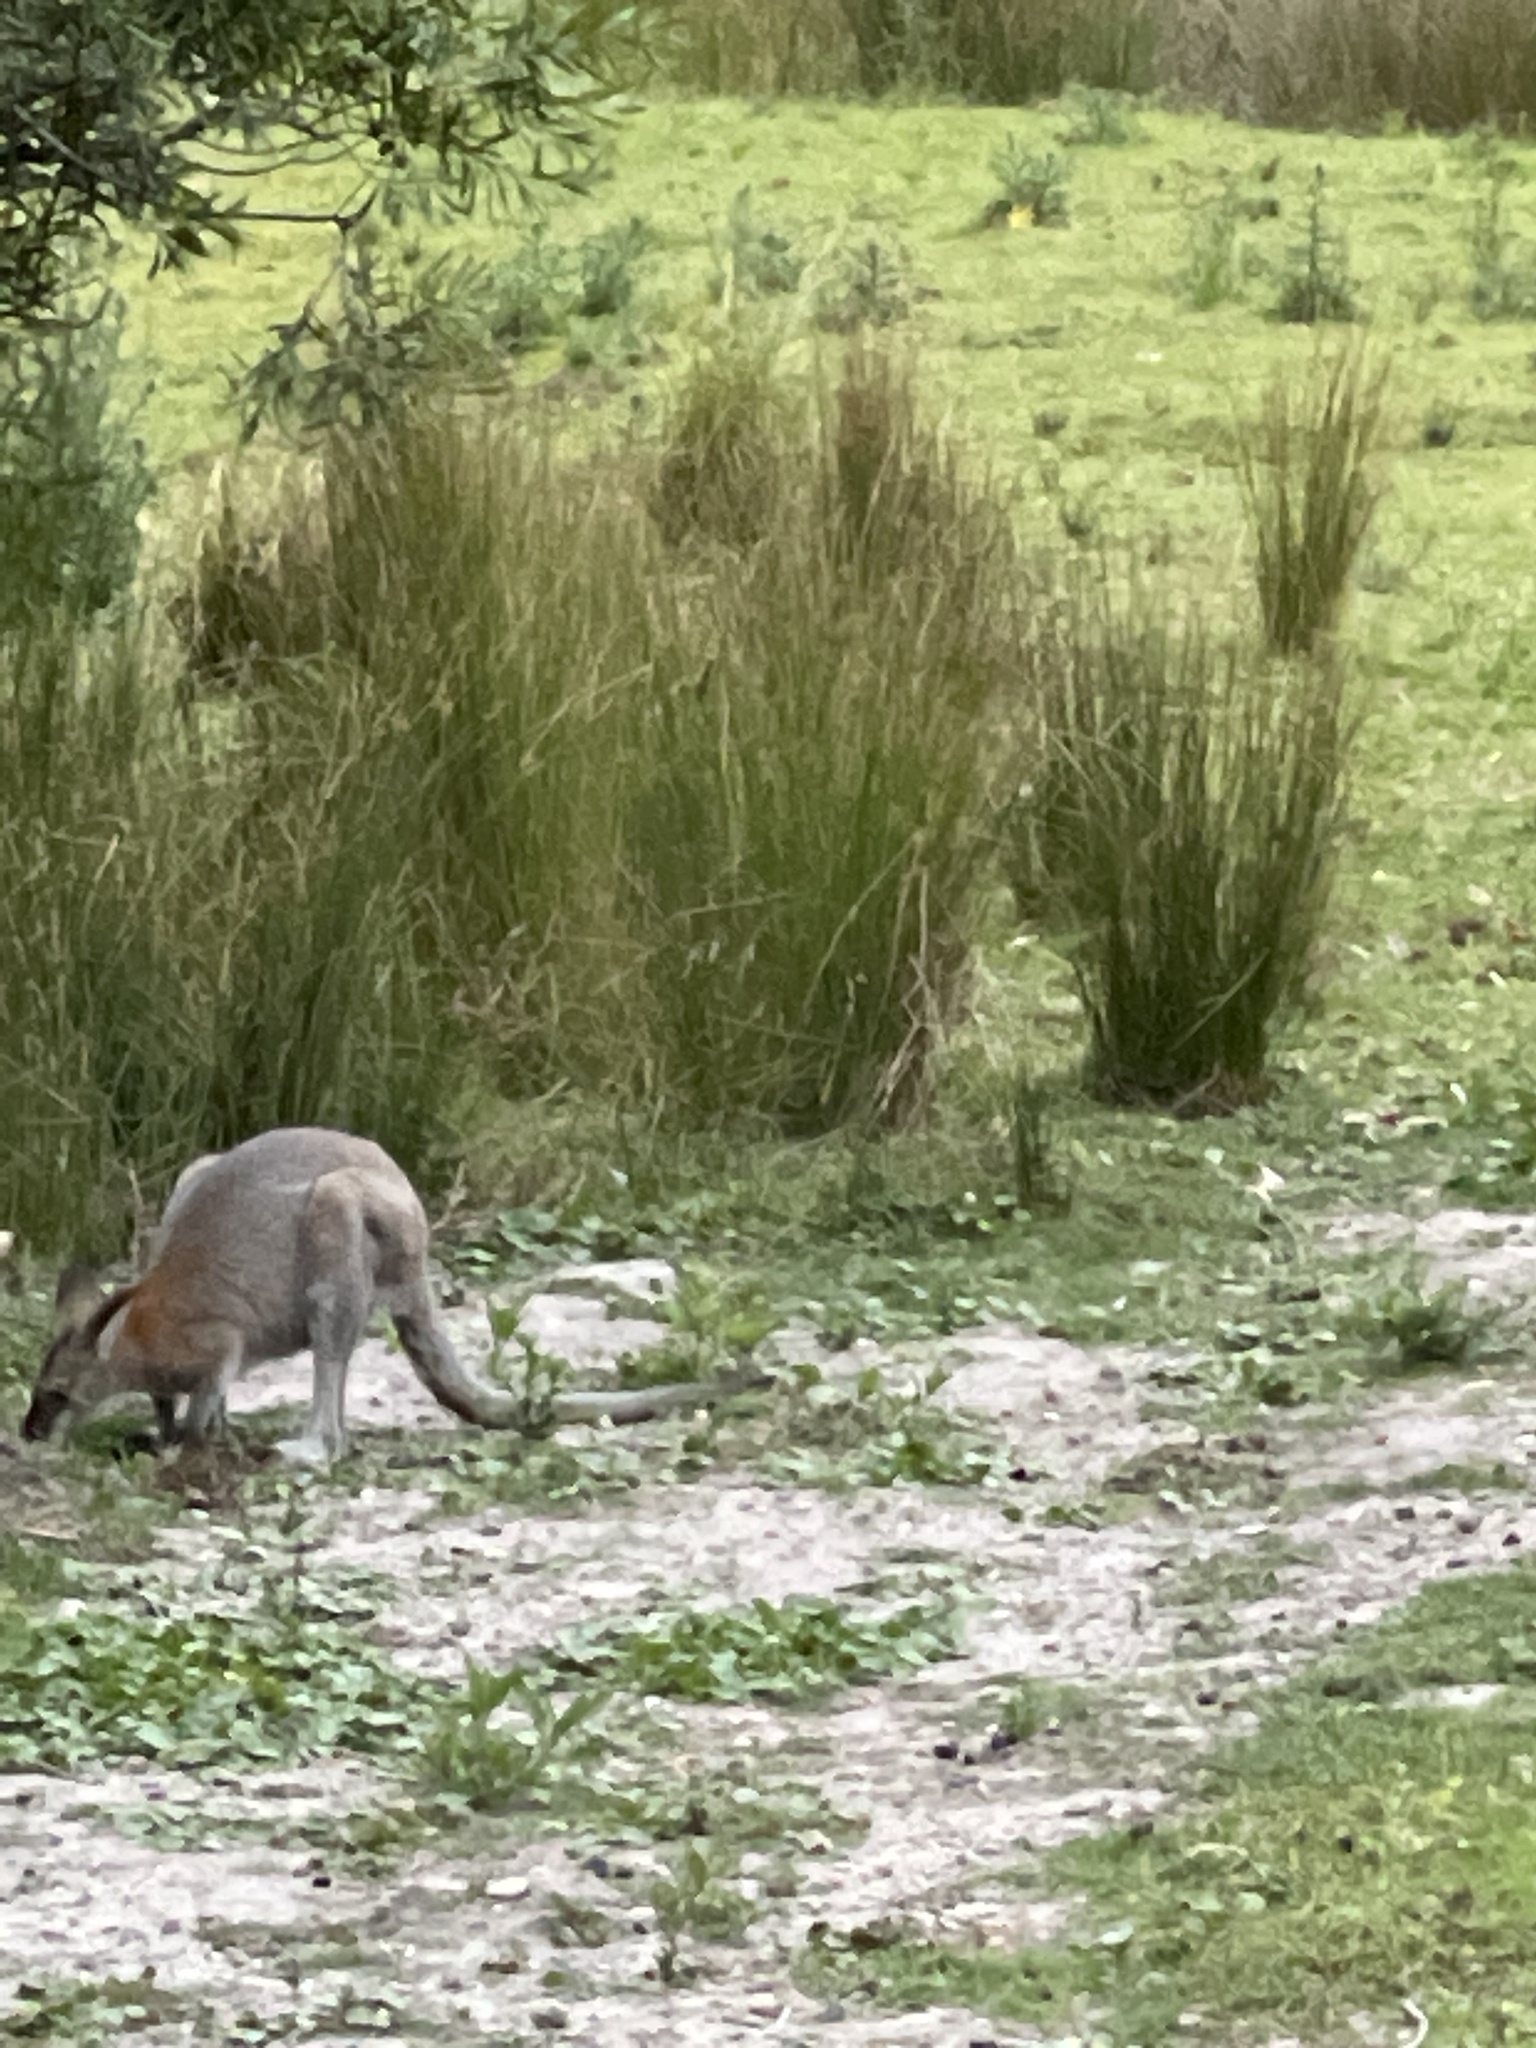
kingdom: Animalia
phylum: Chordata
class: Mammalia
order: Diprotodontia
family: Macropodidae
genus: Notamacropus
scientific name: Notamacropus rufogriseus
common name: Red-necked wallaby
